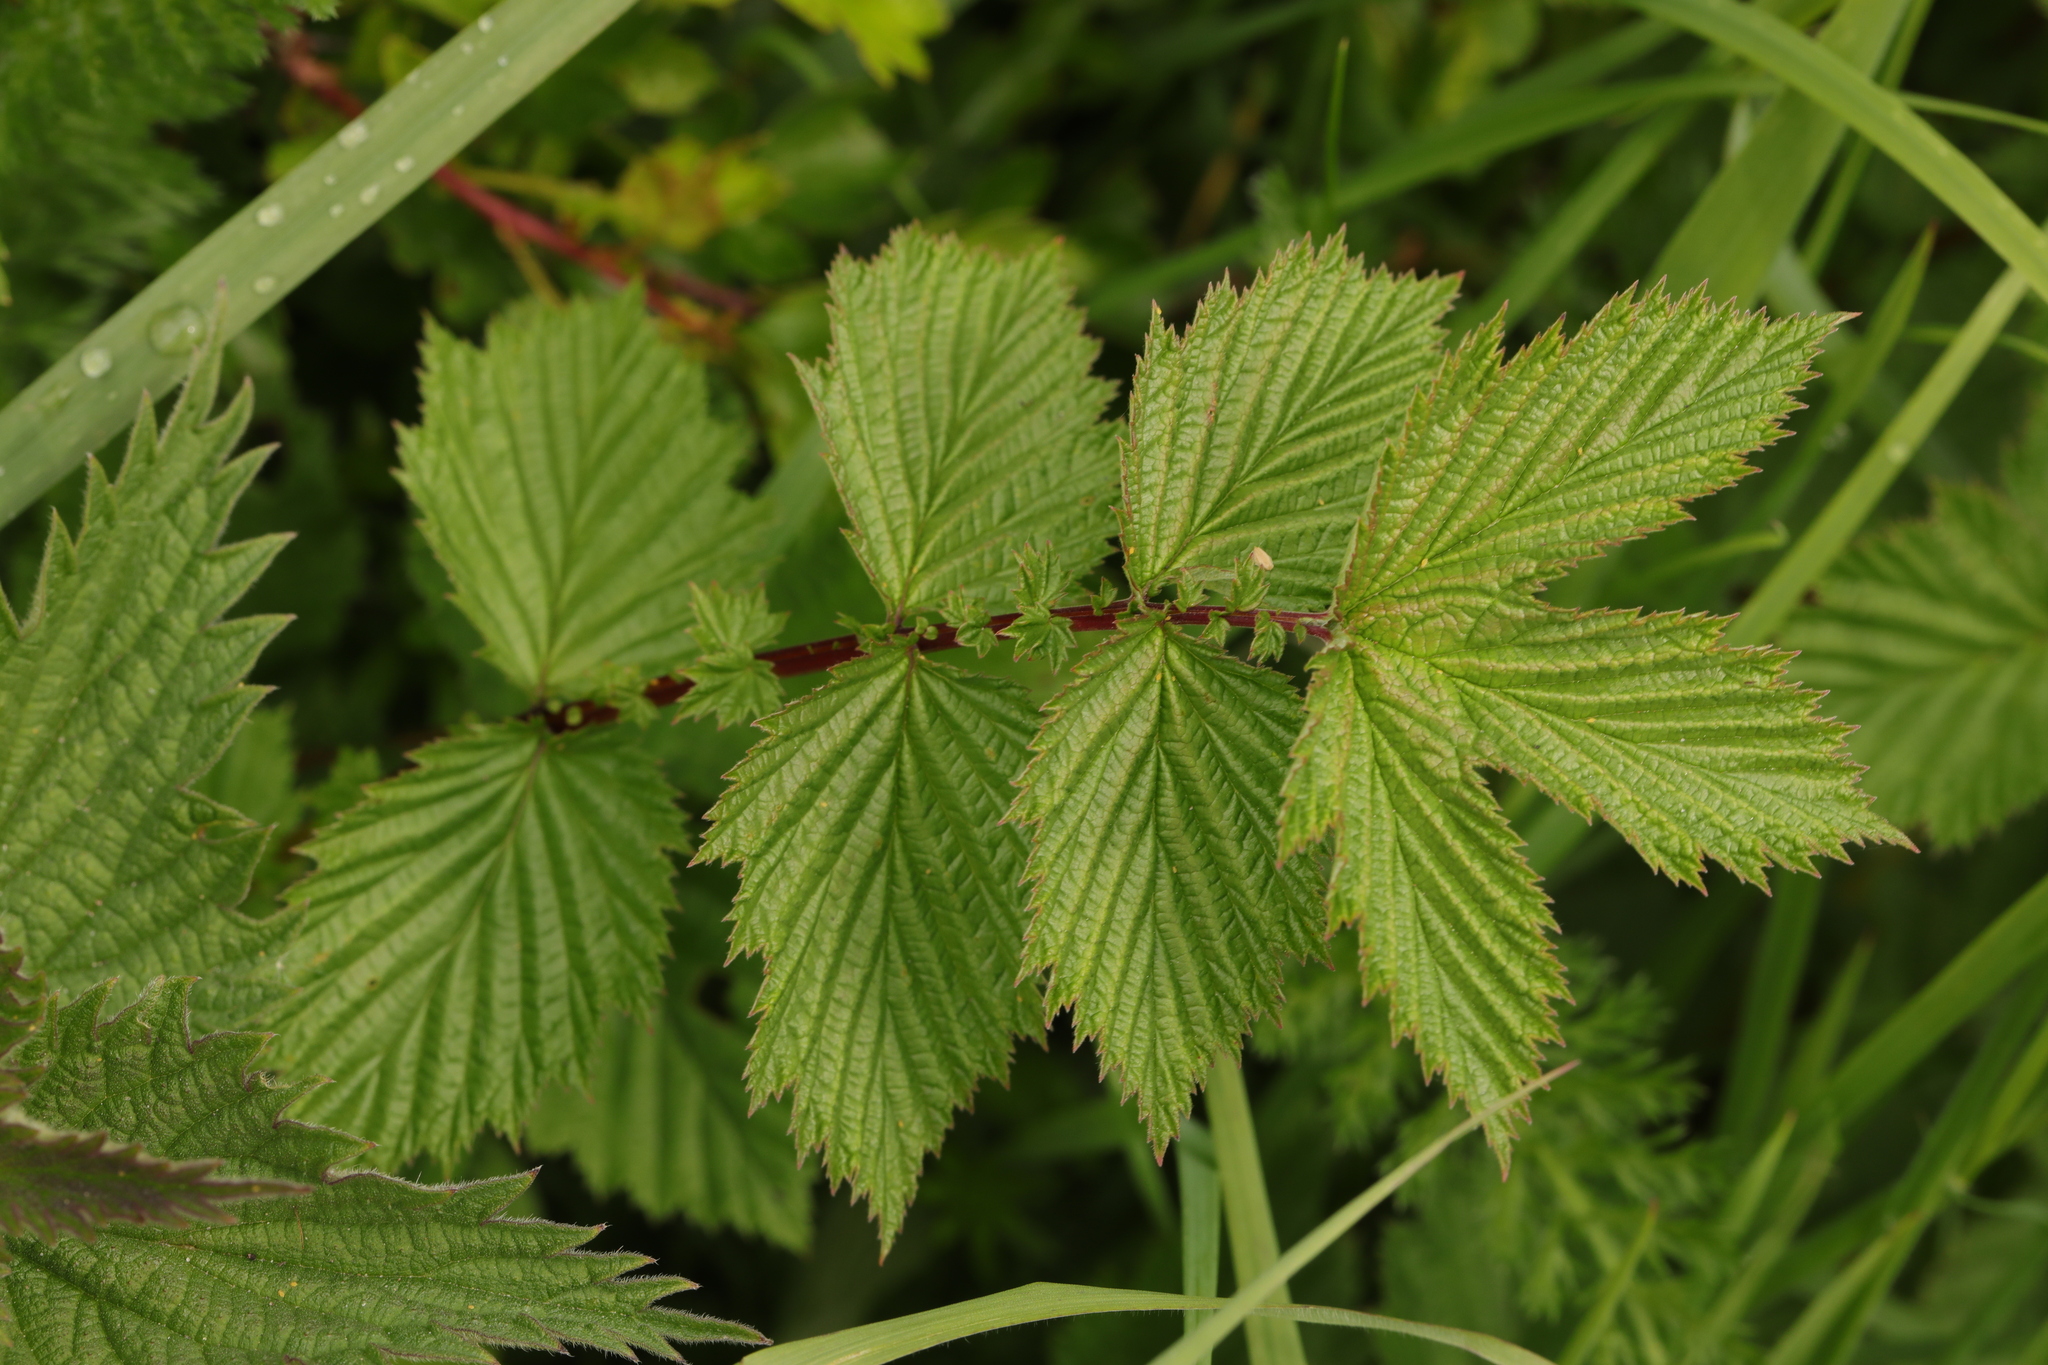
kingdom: Plantae
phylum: Tracheophyta
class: Magnoliopsida
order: Rosales
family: Rosaceae
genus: Filipendula
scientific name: Filipendula ulmaria
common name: Meadowsweet
